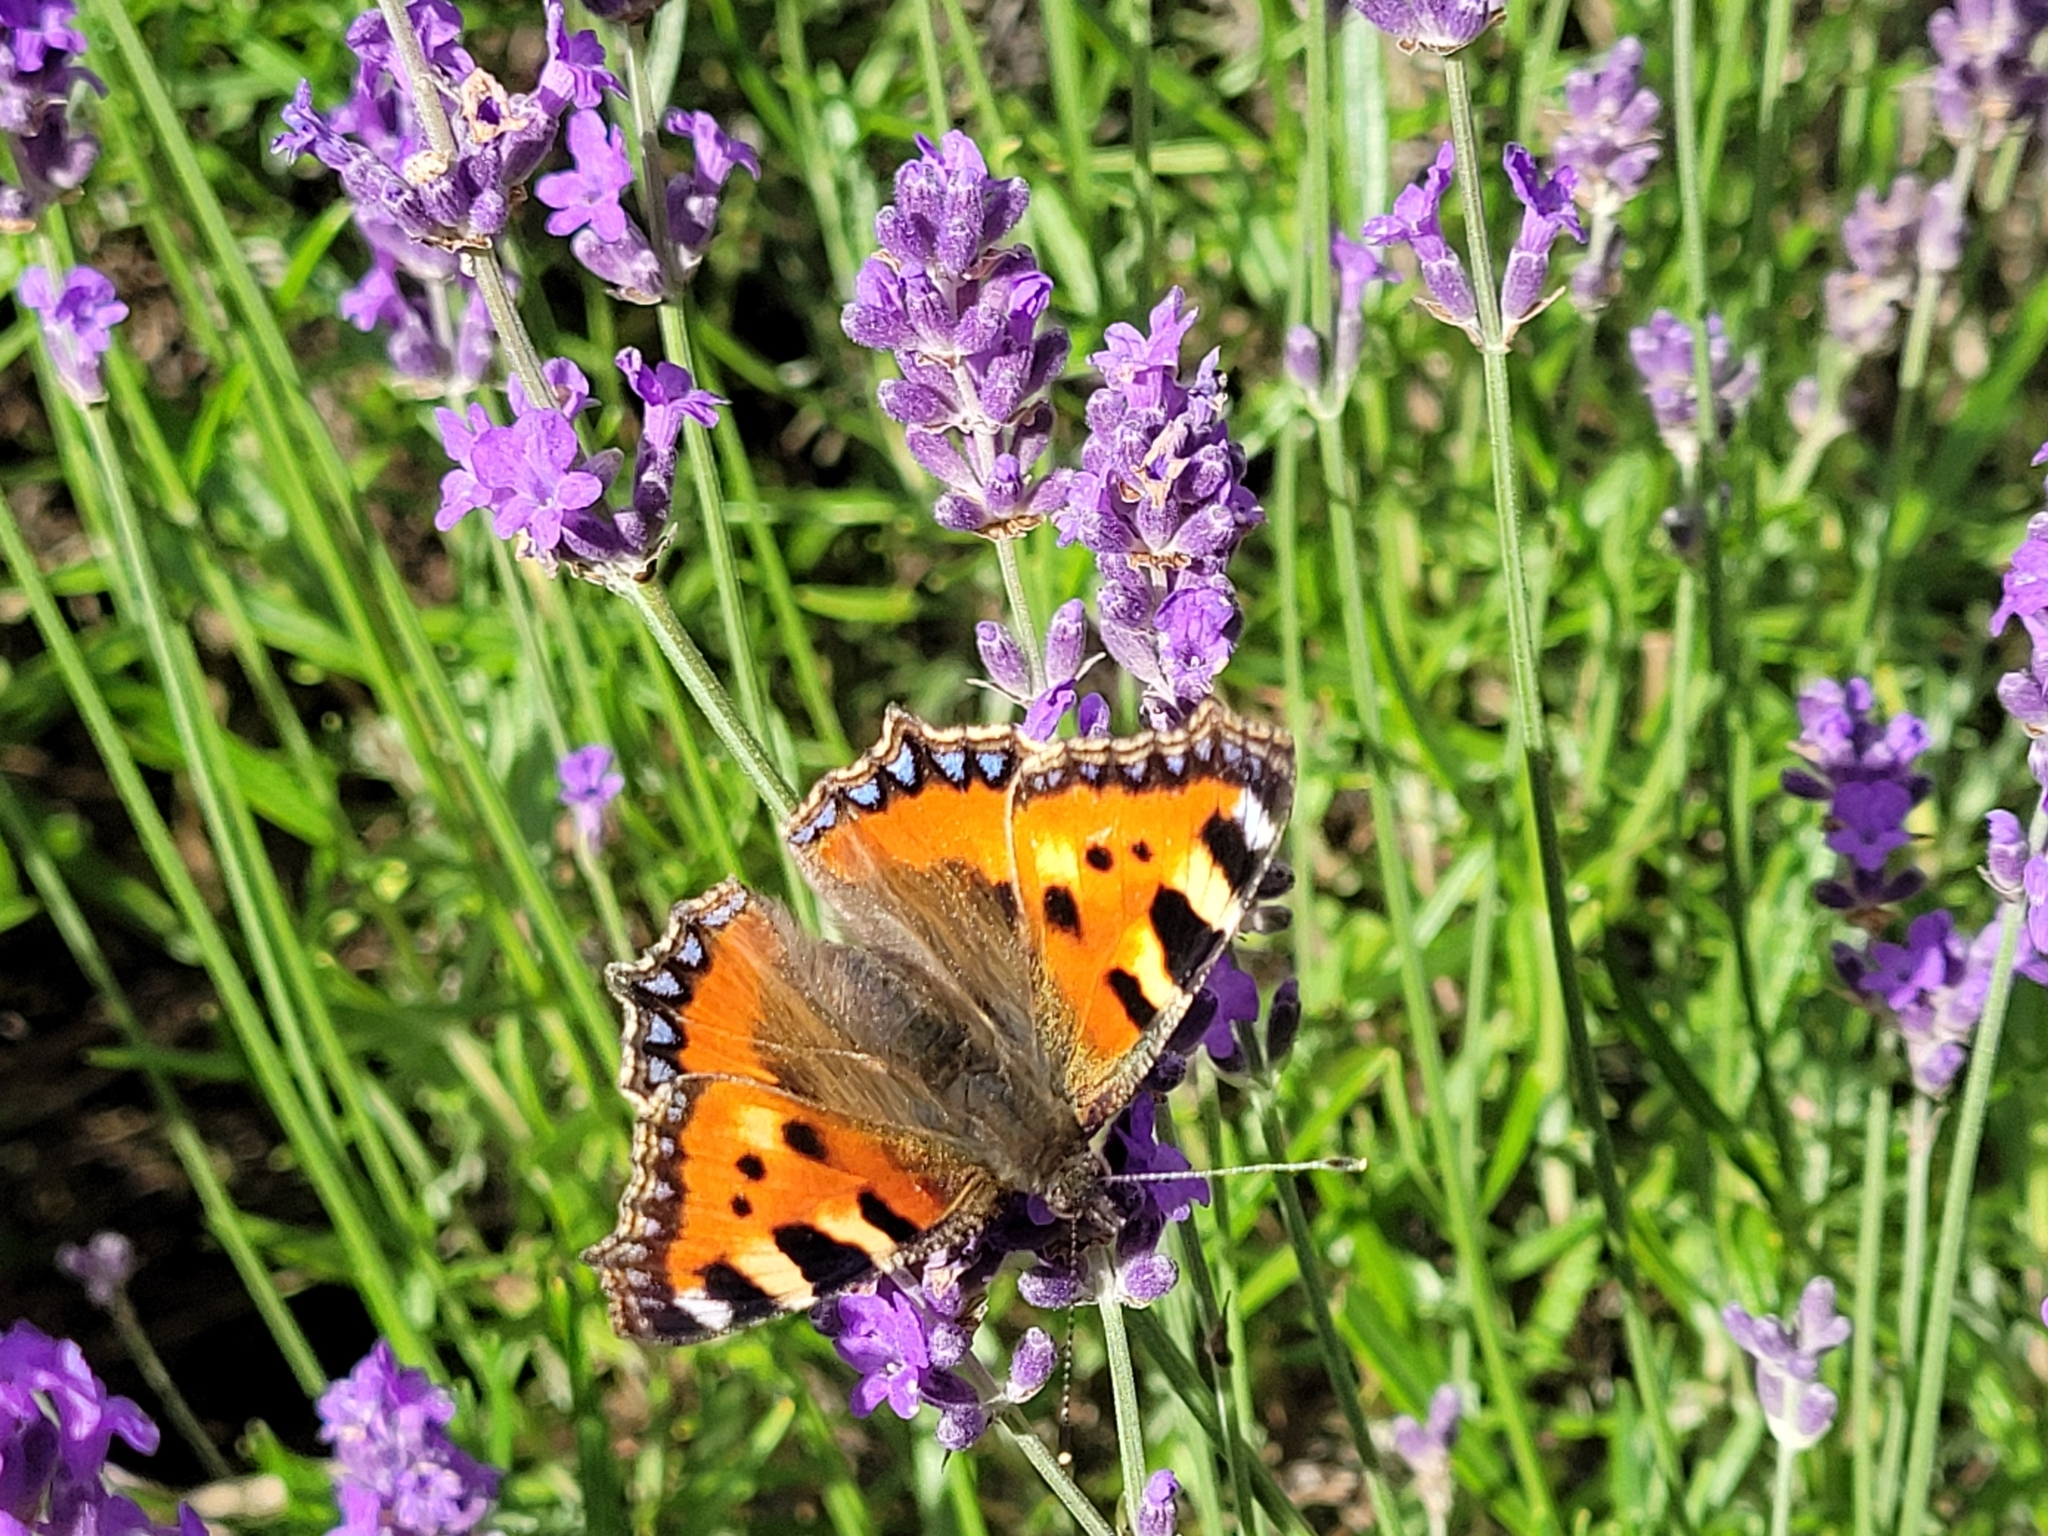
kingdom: Animalia
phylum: Arthropoda
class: Insecta
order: Lepidoptera
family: Nymphalidae
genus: Aglais
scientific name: Aglais urticae
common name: Small tortoiseshell
